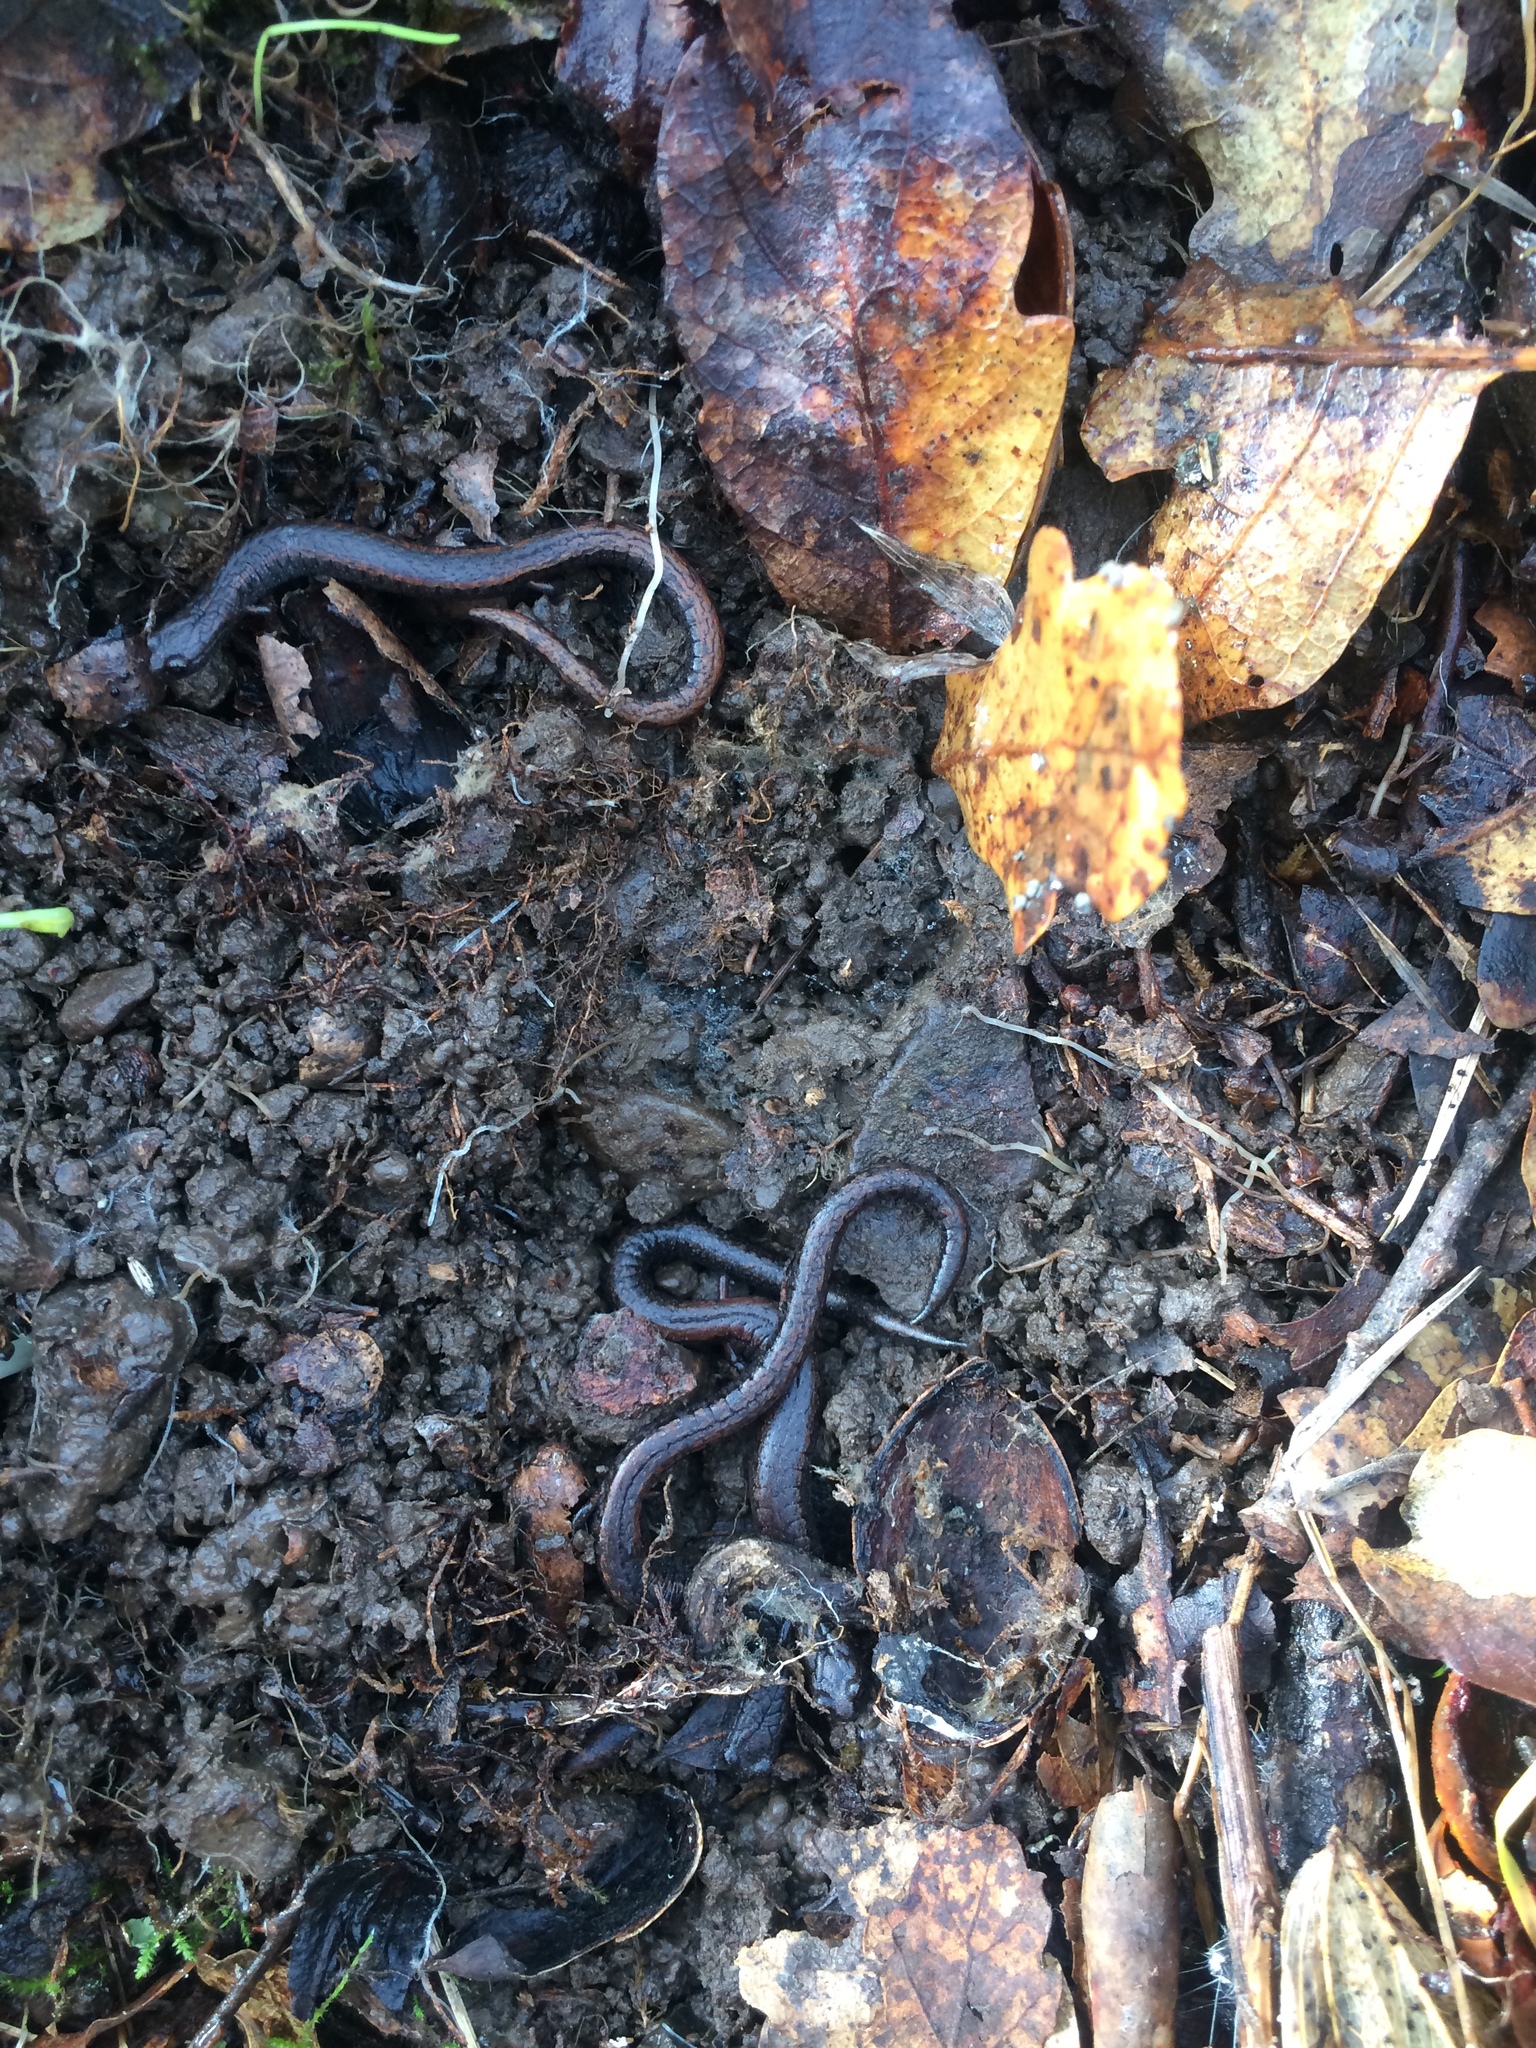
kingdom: Animalia
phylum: Chordata
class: Amphibia
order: Caudata
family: Plethodontidae
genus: Batrachoseps
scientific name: Batrachoseps attenuatus
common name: California slender salamander
